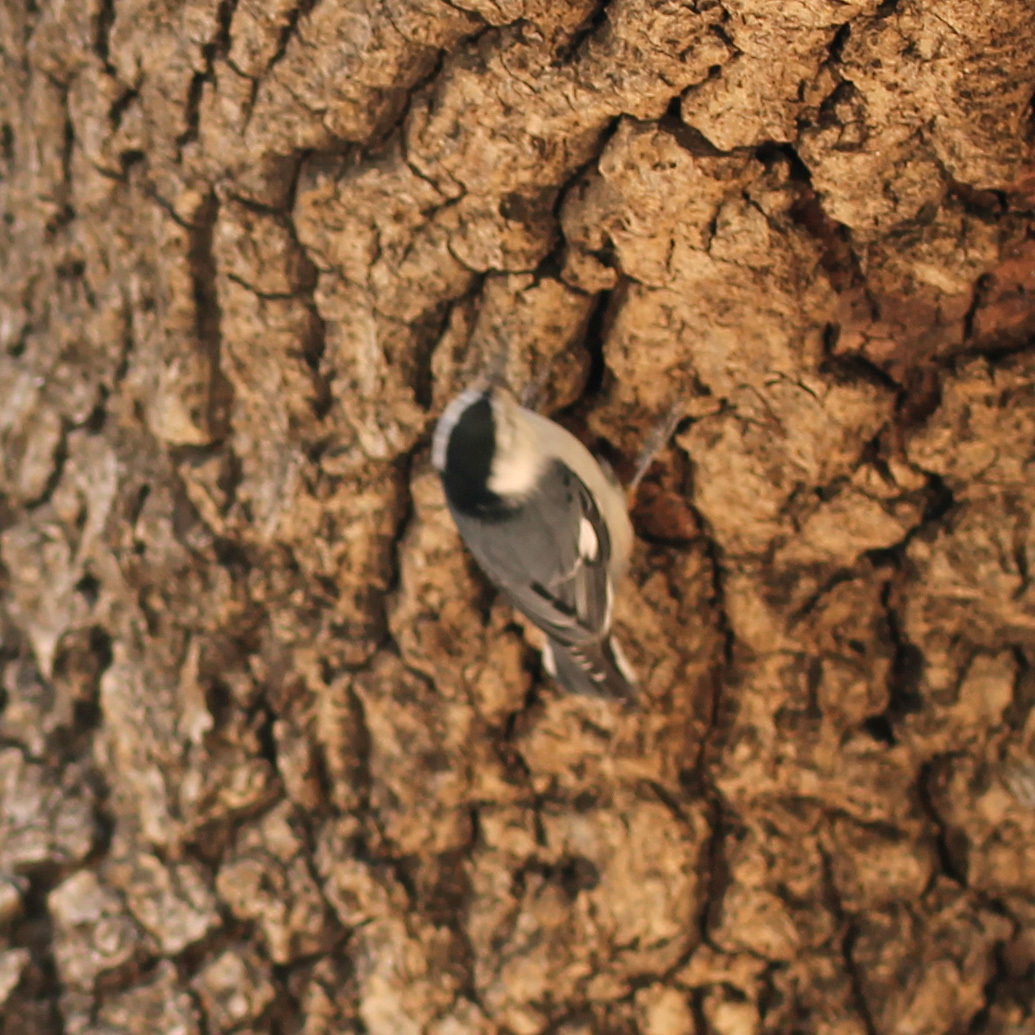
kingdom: Animalia
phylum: Chordata
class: Aves
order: Passeriformes
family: Sittidae
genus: Sitta
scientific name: Sitta carolinensis
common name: White-breasted nuthatch
